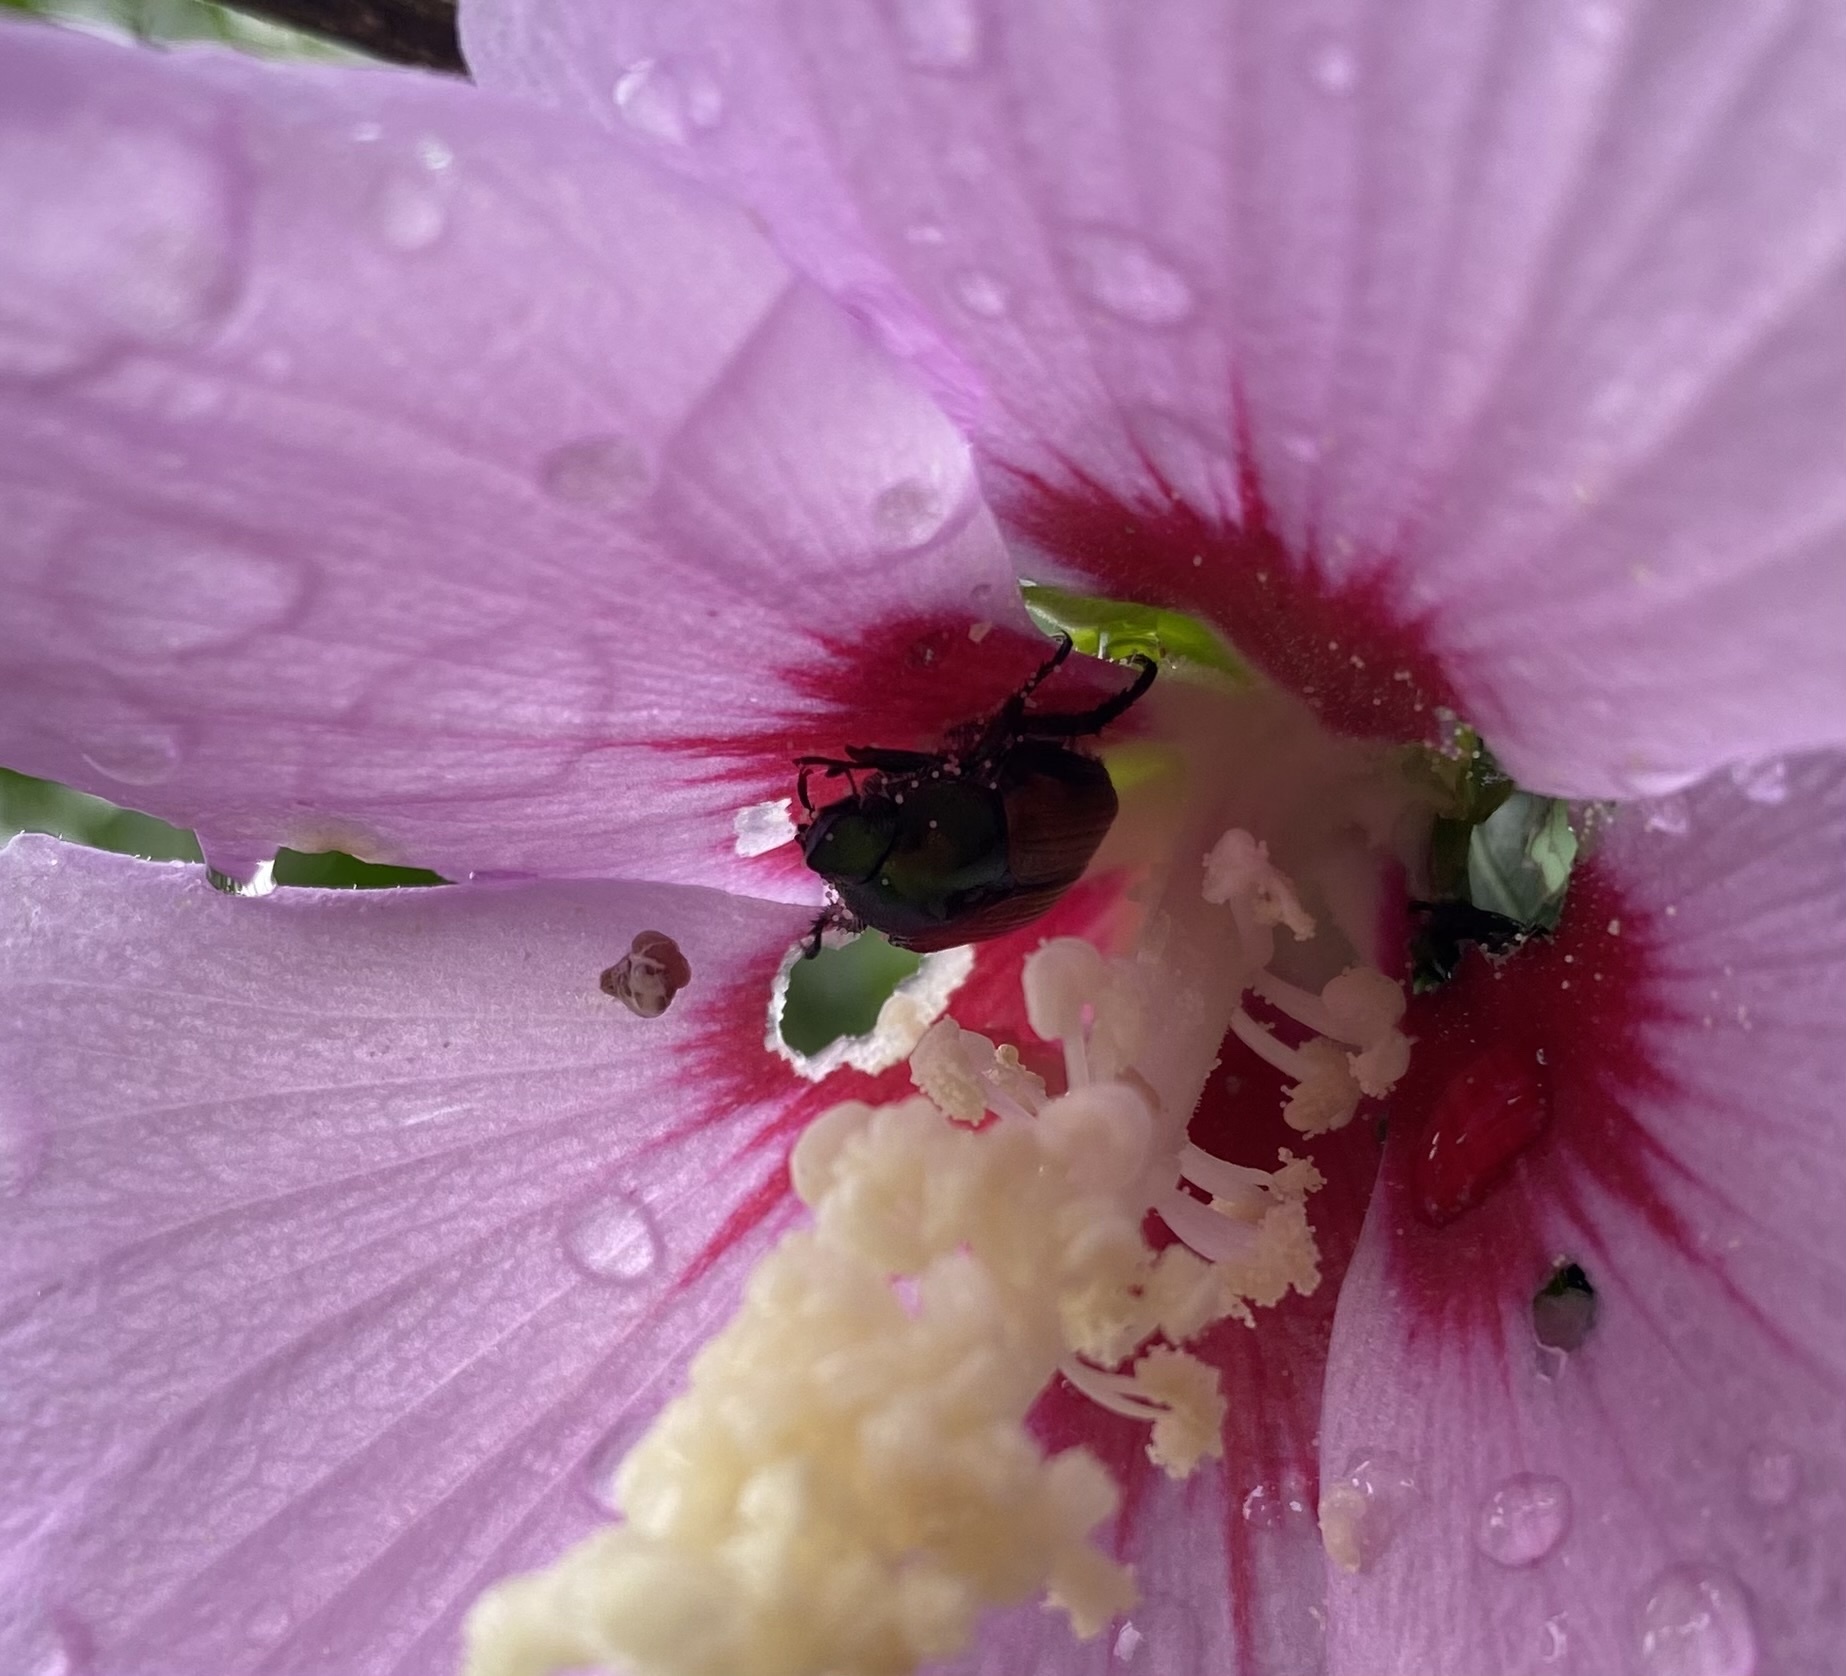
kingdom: Animalia
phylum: Arthropoda
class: Insecta
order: Coleoptera
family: Scarabaeidae
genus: Popillia
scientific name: Popillia japonica
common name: Japanese beetle
